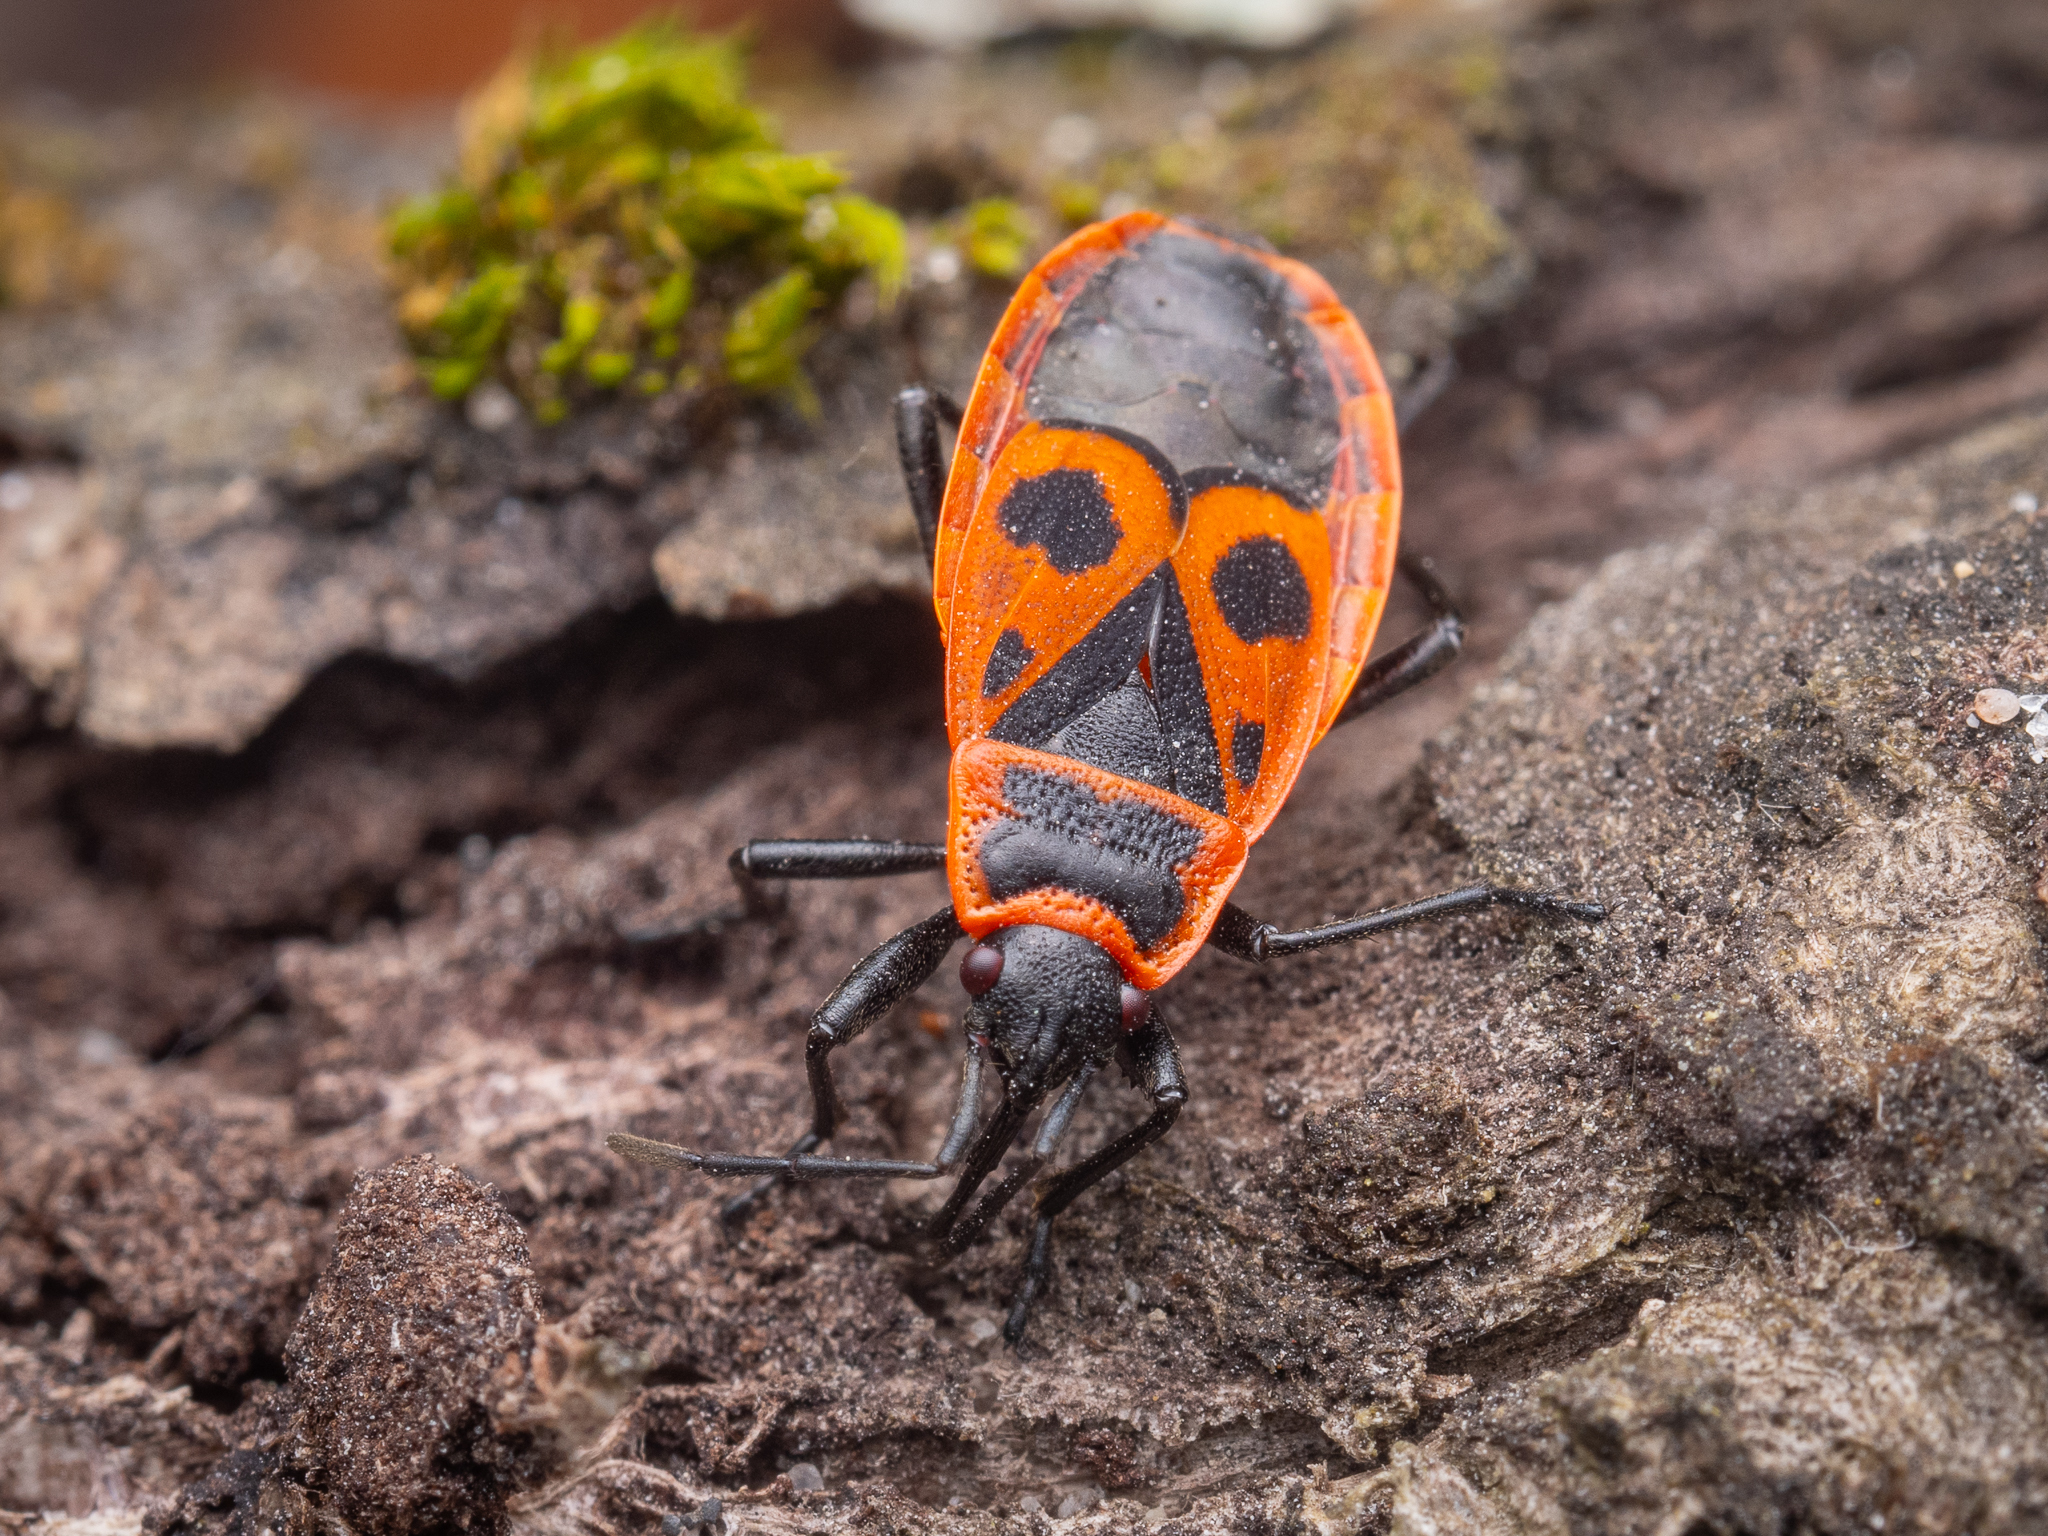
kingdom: Animalia
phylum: Arthropoda
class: Insecta
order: Hemiptera
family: Pyrrhocoridae
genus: Pyrrhocoris
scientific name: Pyrrhocoris apterus
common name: Firebug
